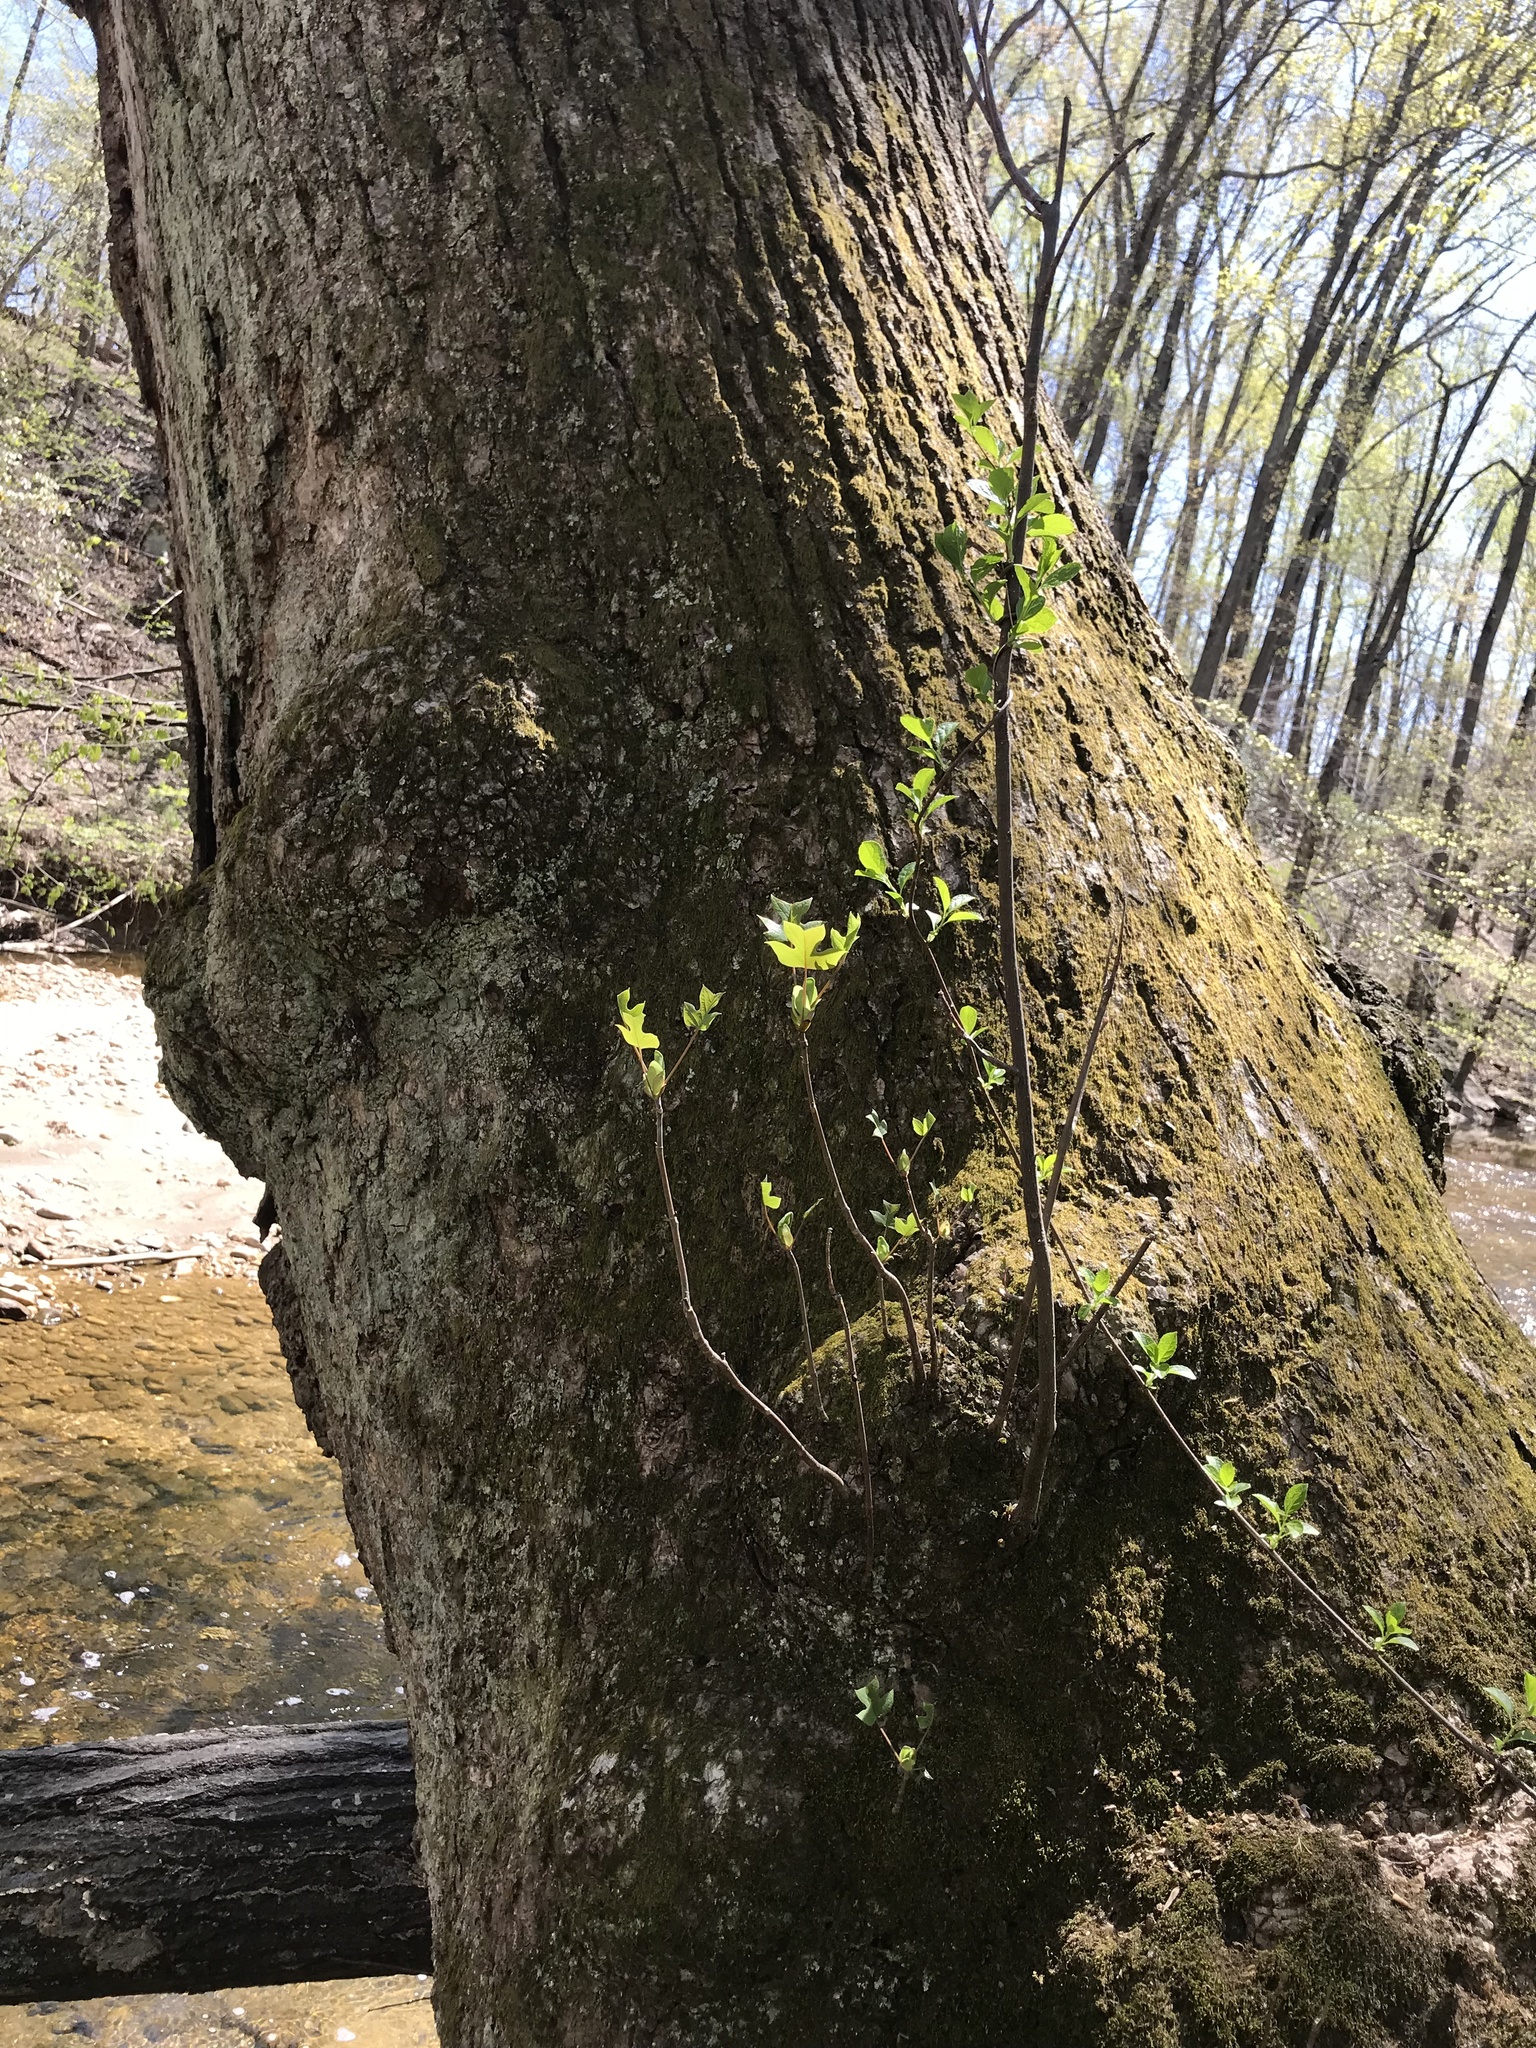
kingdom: Plantae
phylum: Tracheophyta
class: Magnoliopsida
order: Magnoliales
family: Magnoliaceae
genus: Liriodendron
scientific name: Liriodendron tulipifera
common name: Tulip tree
